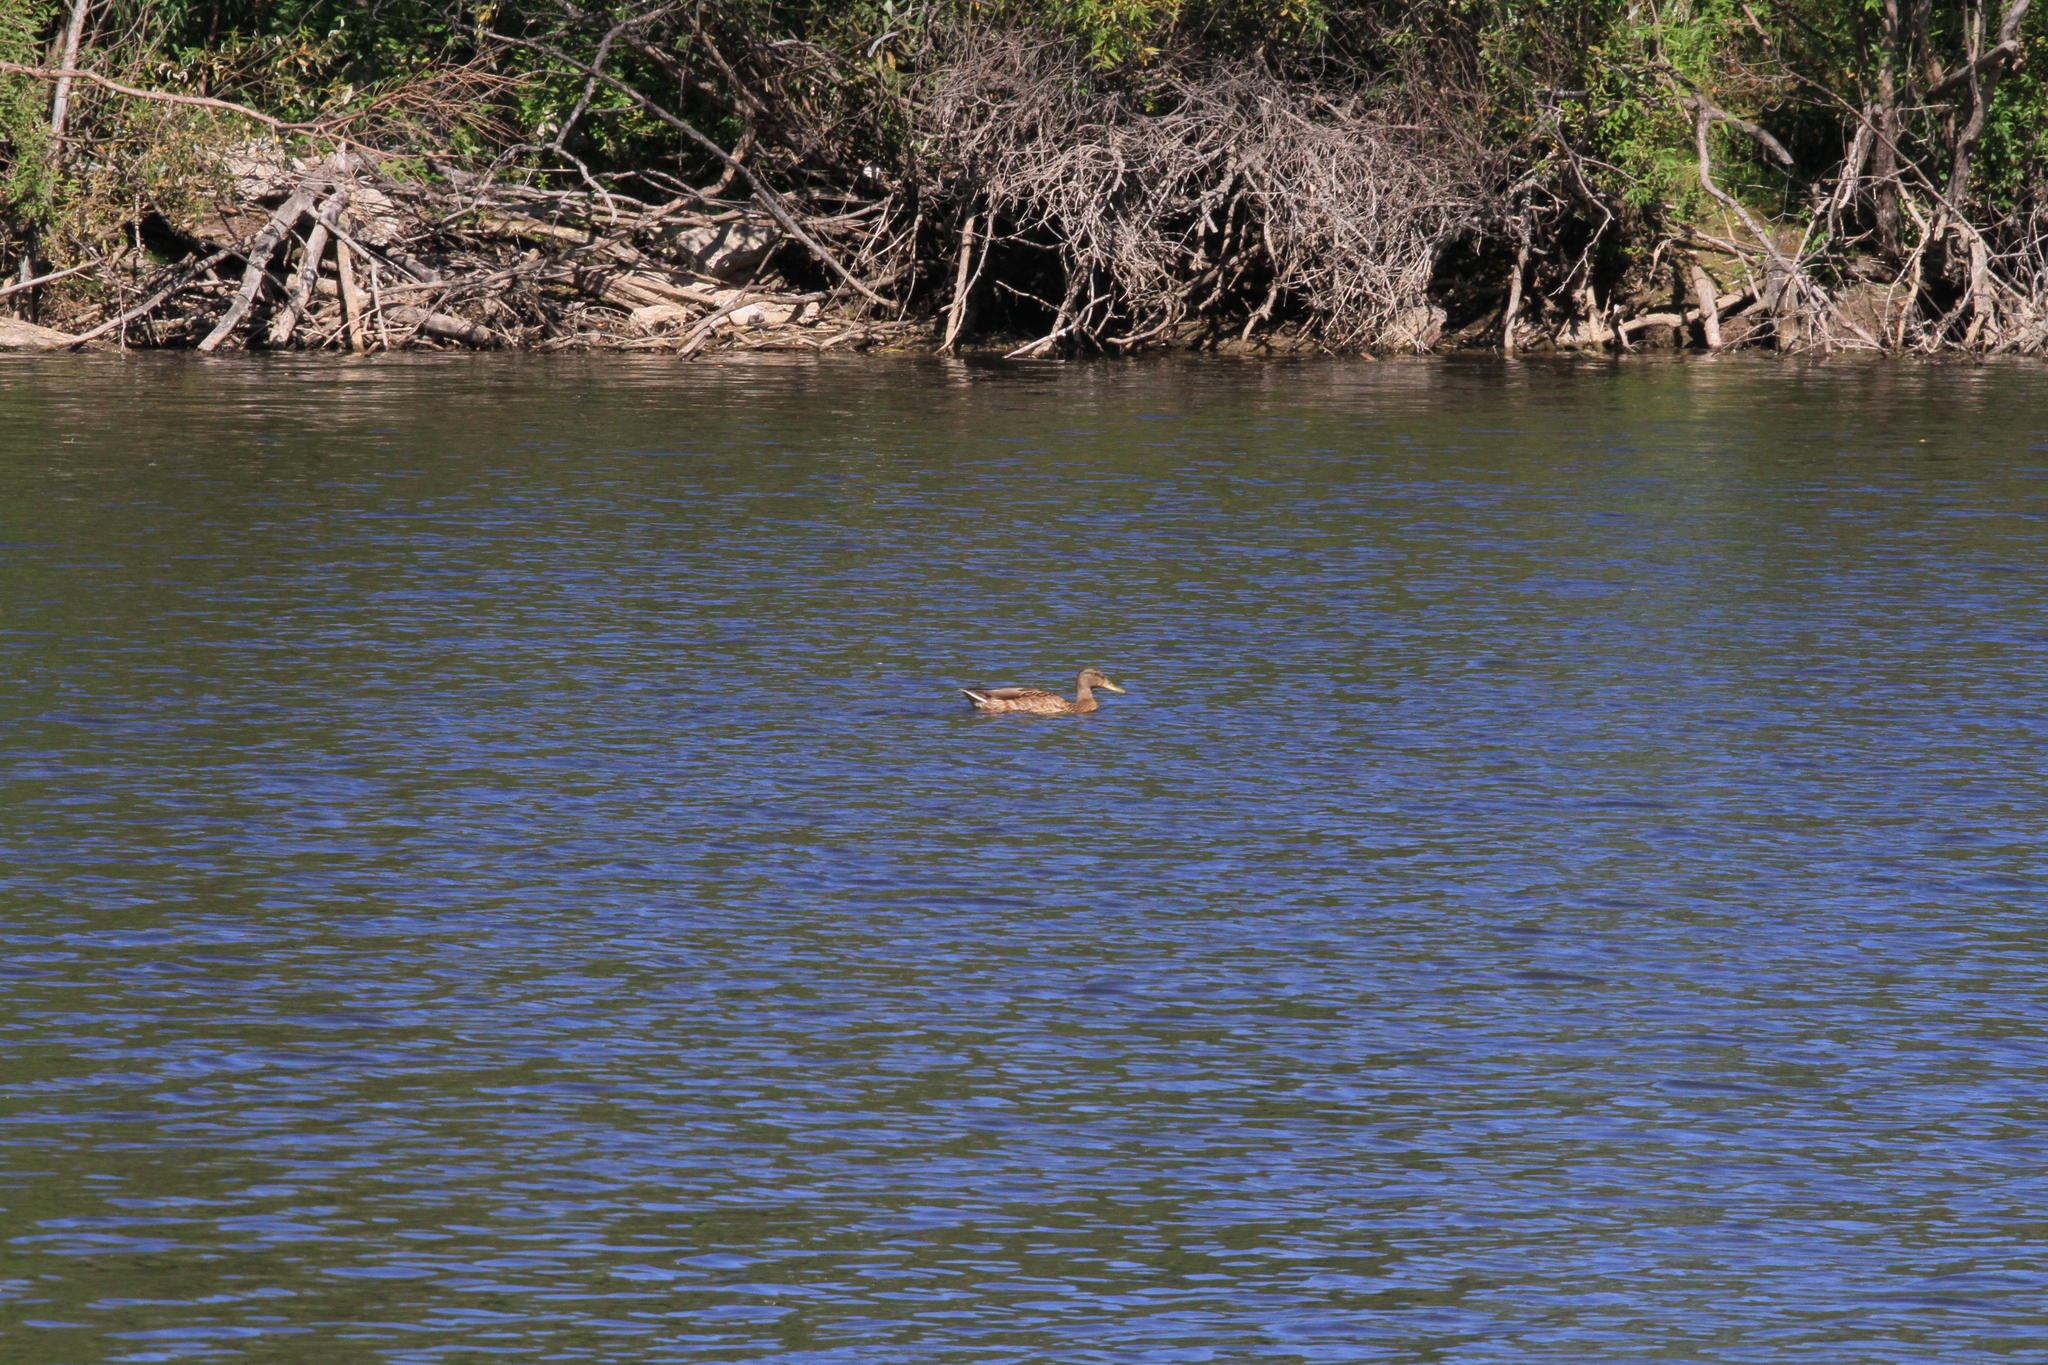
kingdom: Animalia
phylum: Chordata
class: Aves
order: Anseriformes
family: Anatidae
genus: Anas
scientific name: Anas platyrhynchos
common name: Mallard
